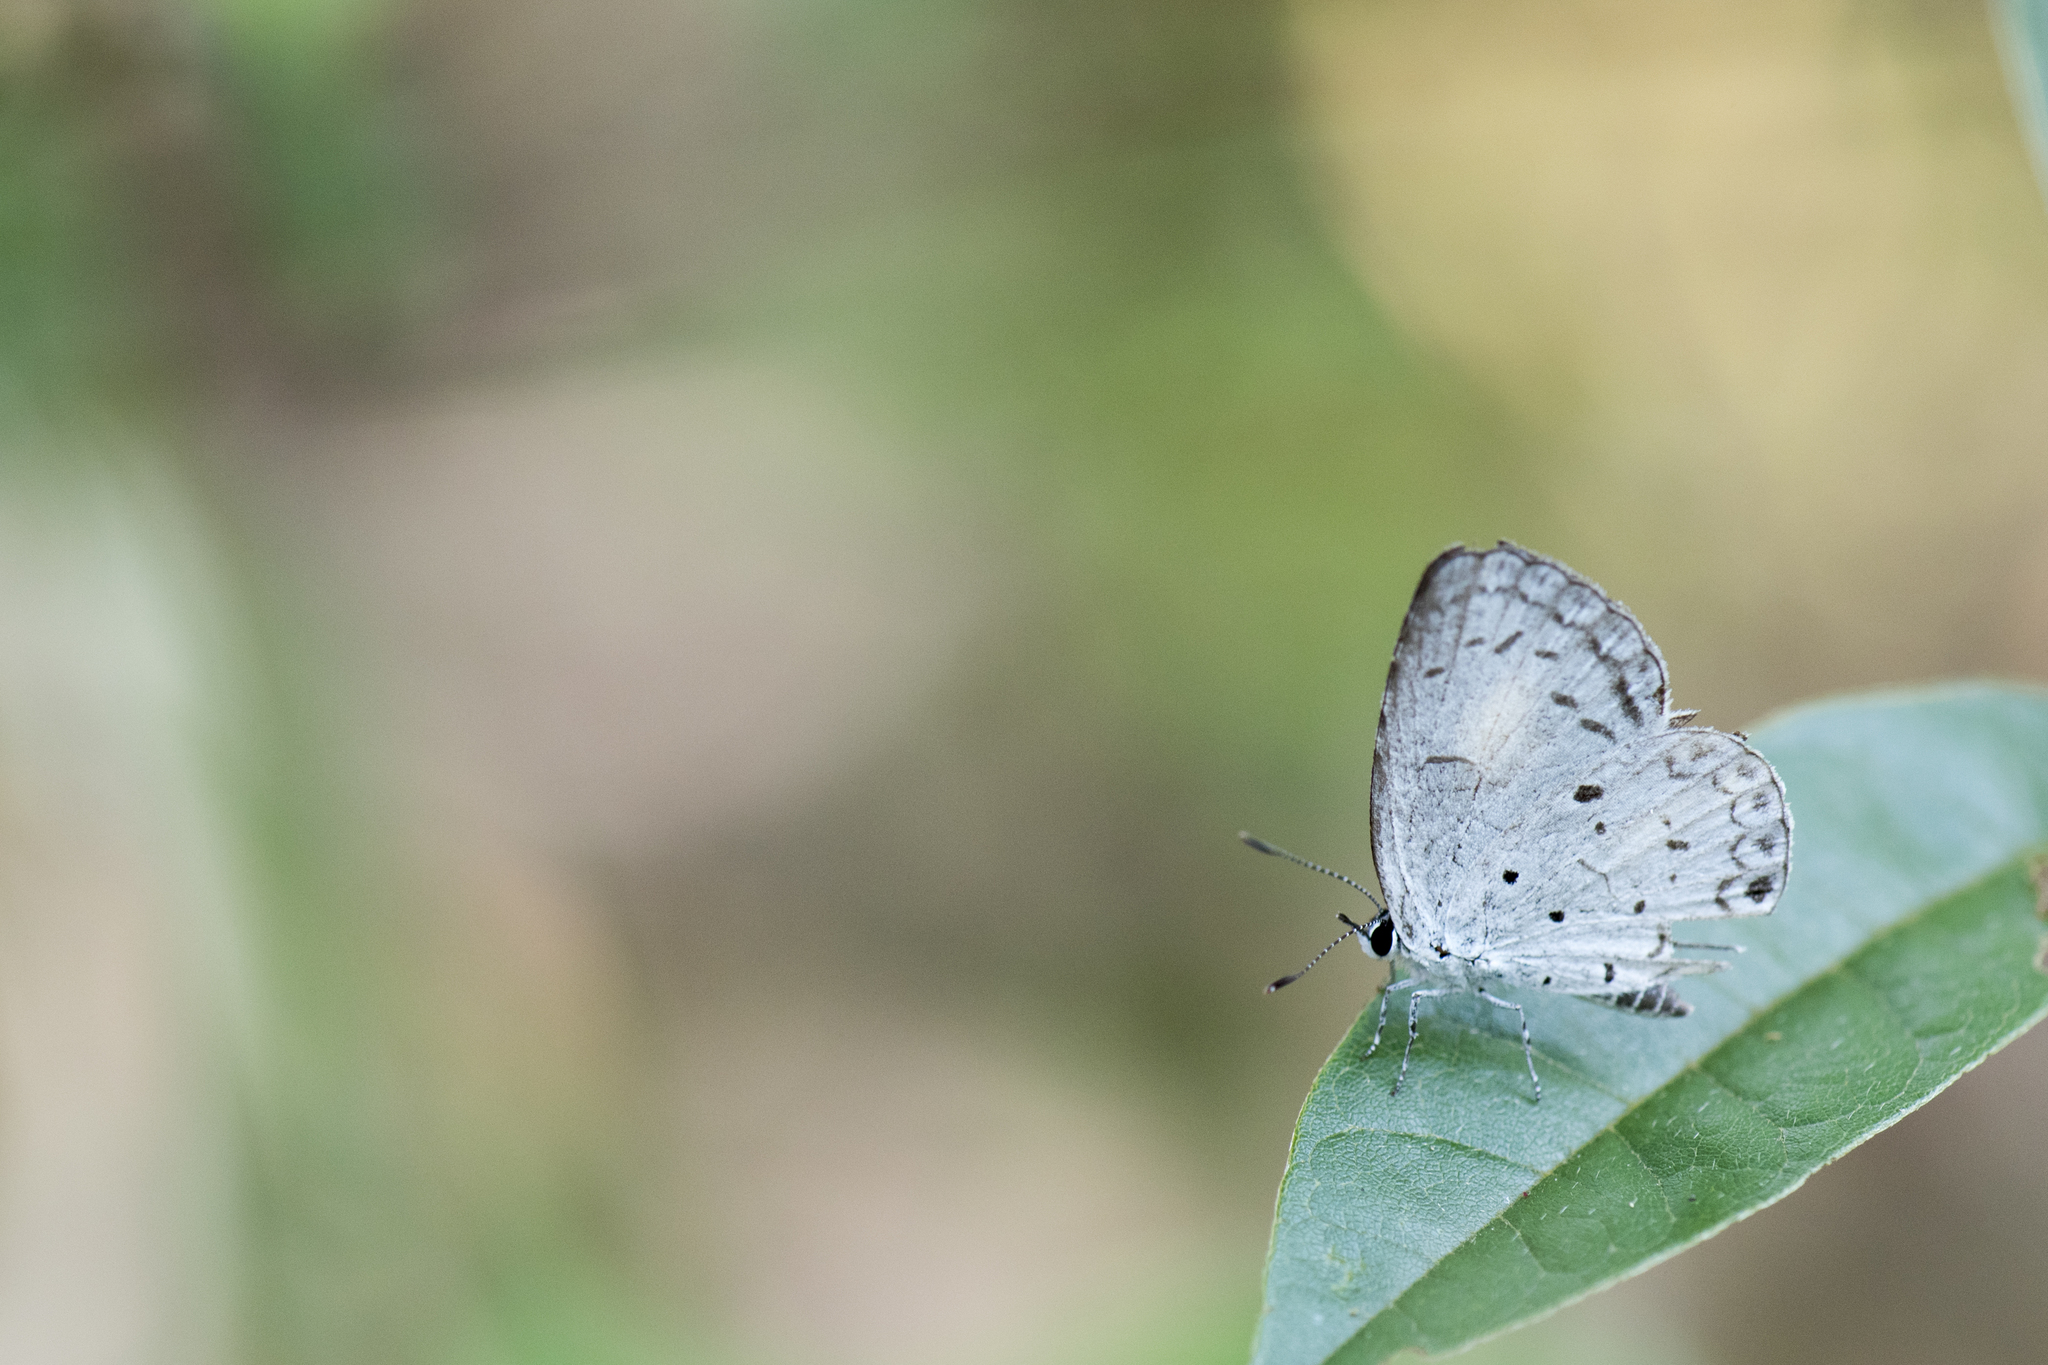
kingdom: Animalia
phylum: Arthropoda
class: Insecta
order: Lepidoptera
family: Lycaenidae
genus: Acytolepis
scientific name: Acytolepis puspa
